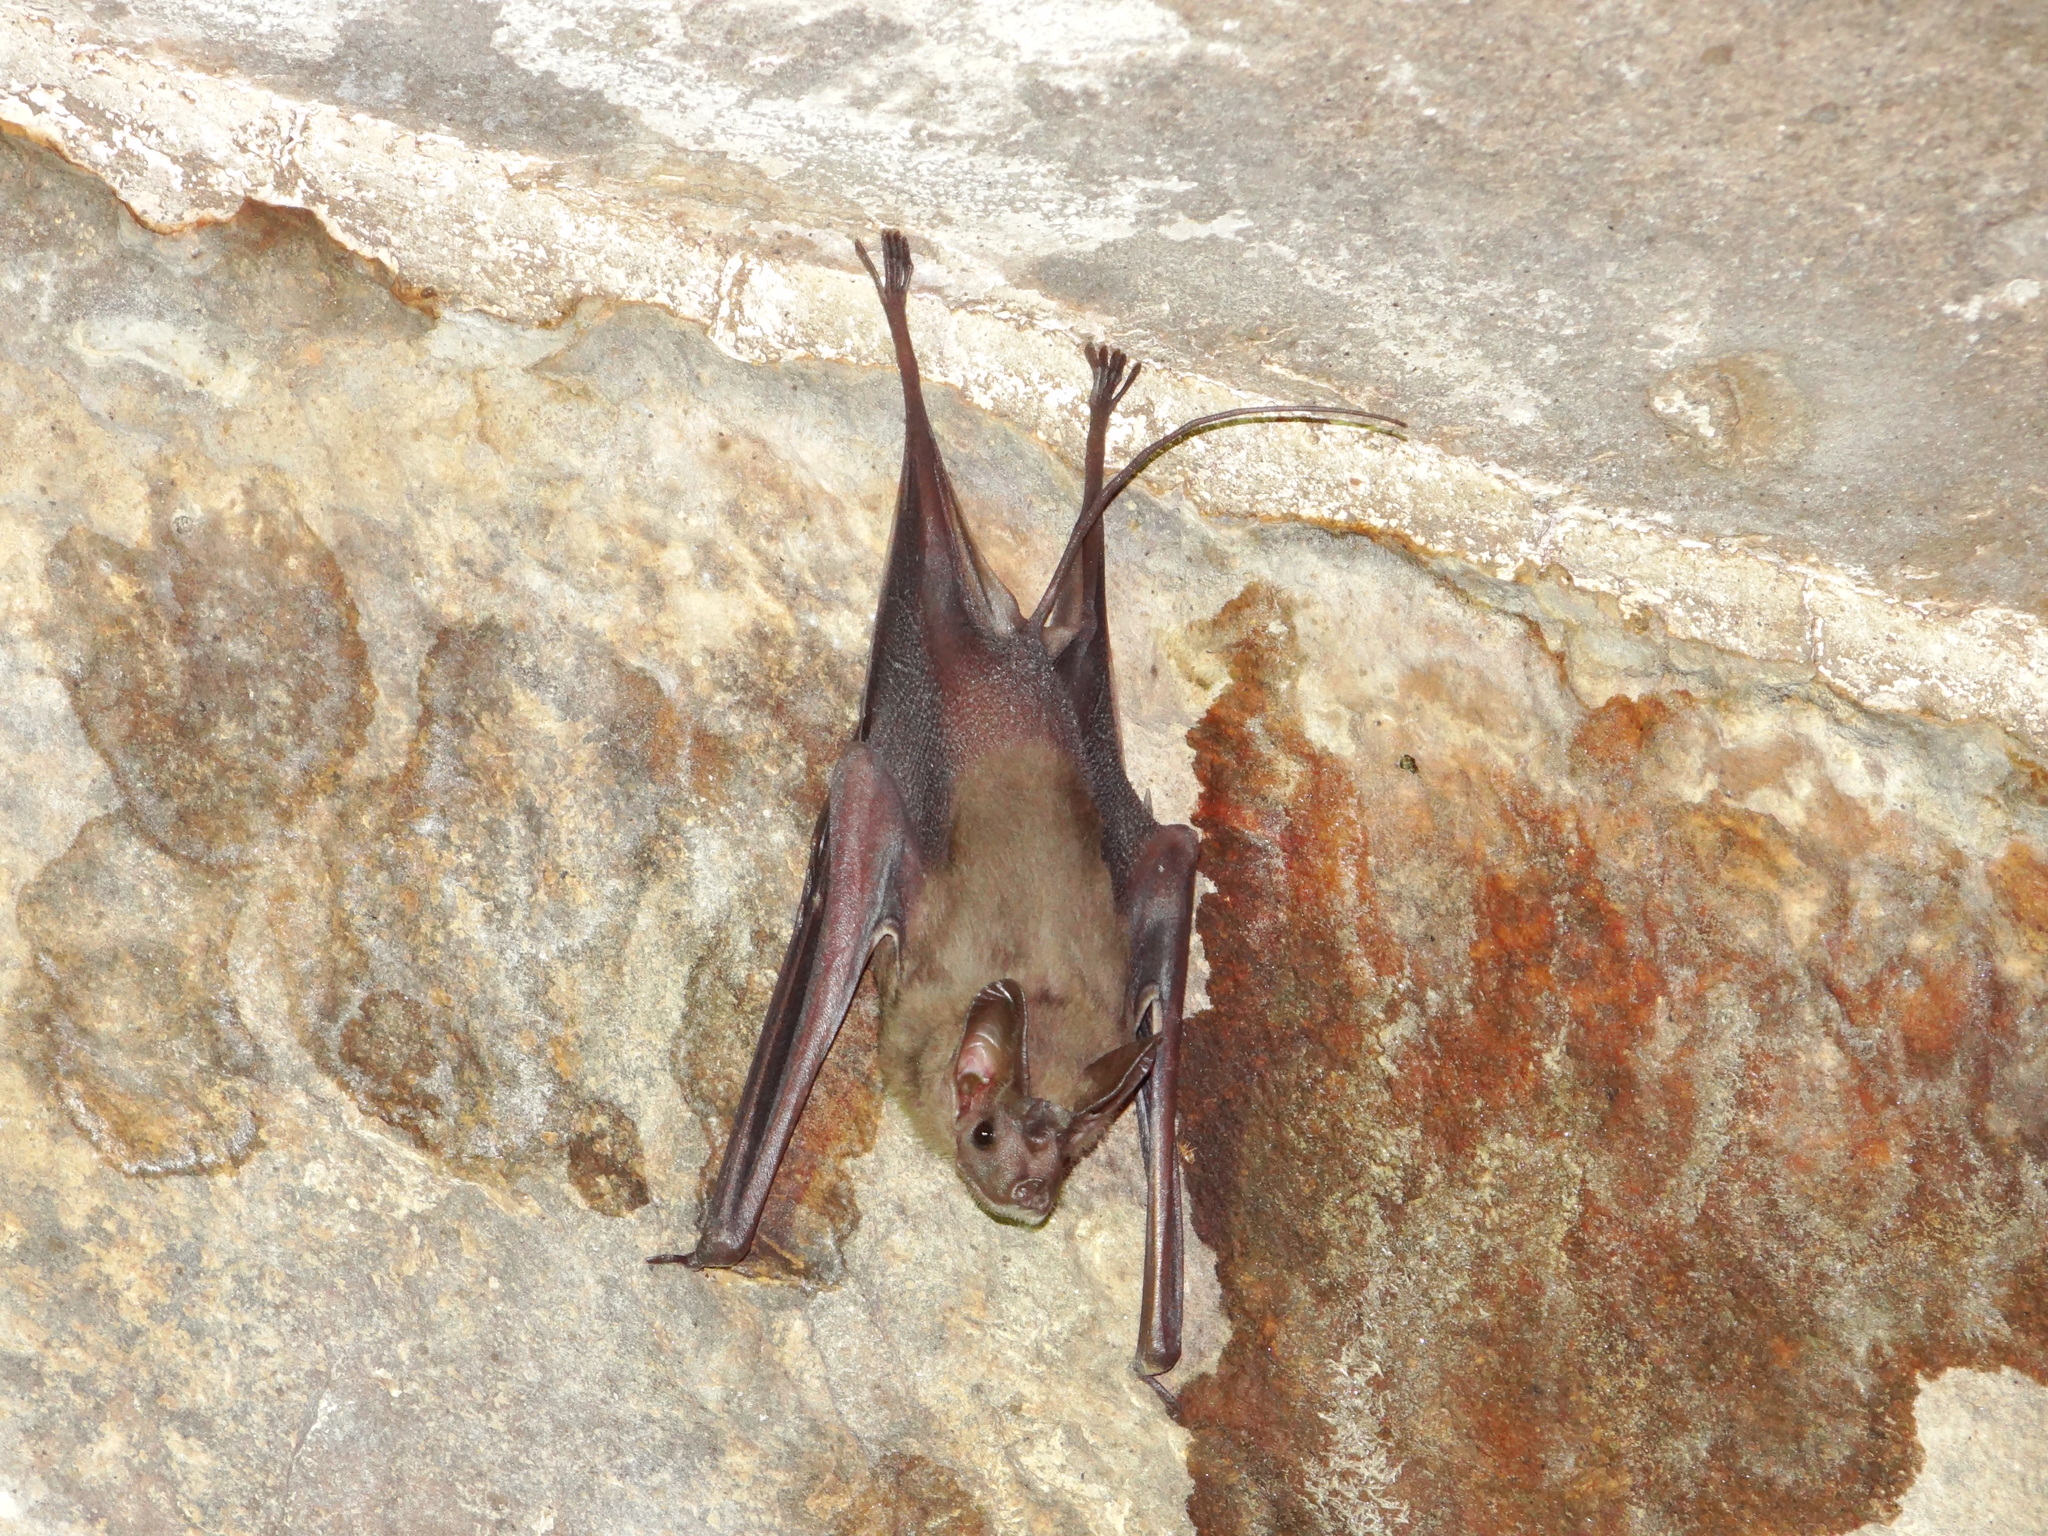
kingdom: Animalia
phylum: Chordata
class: Mammalia
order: Chiroptera
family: Rhinopomatidae
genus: Rhinopoma
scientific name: Rhinopoma hardwickii
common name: Lesser mouse-tailed bat
